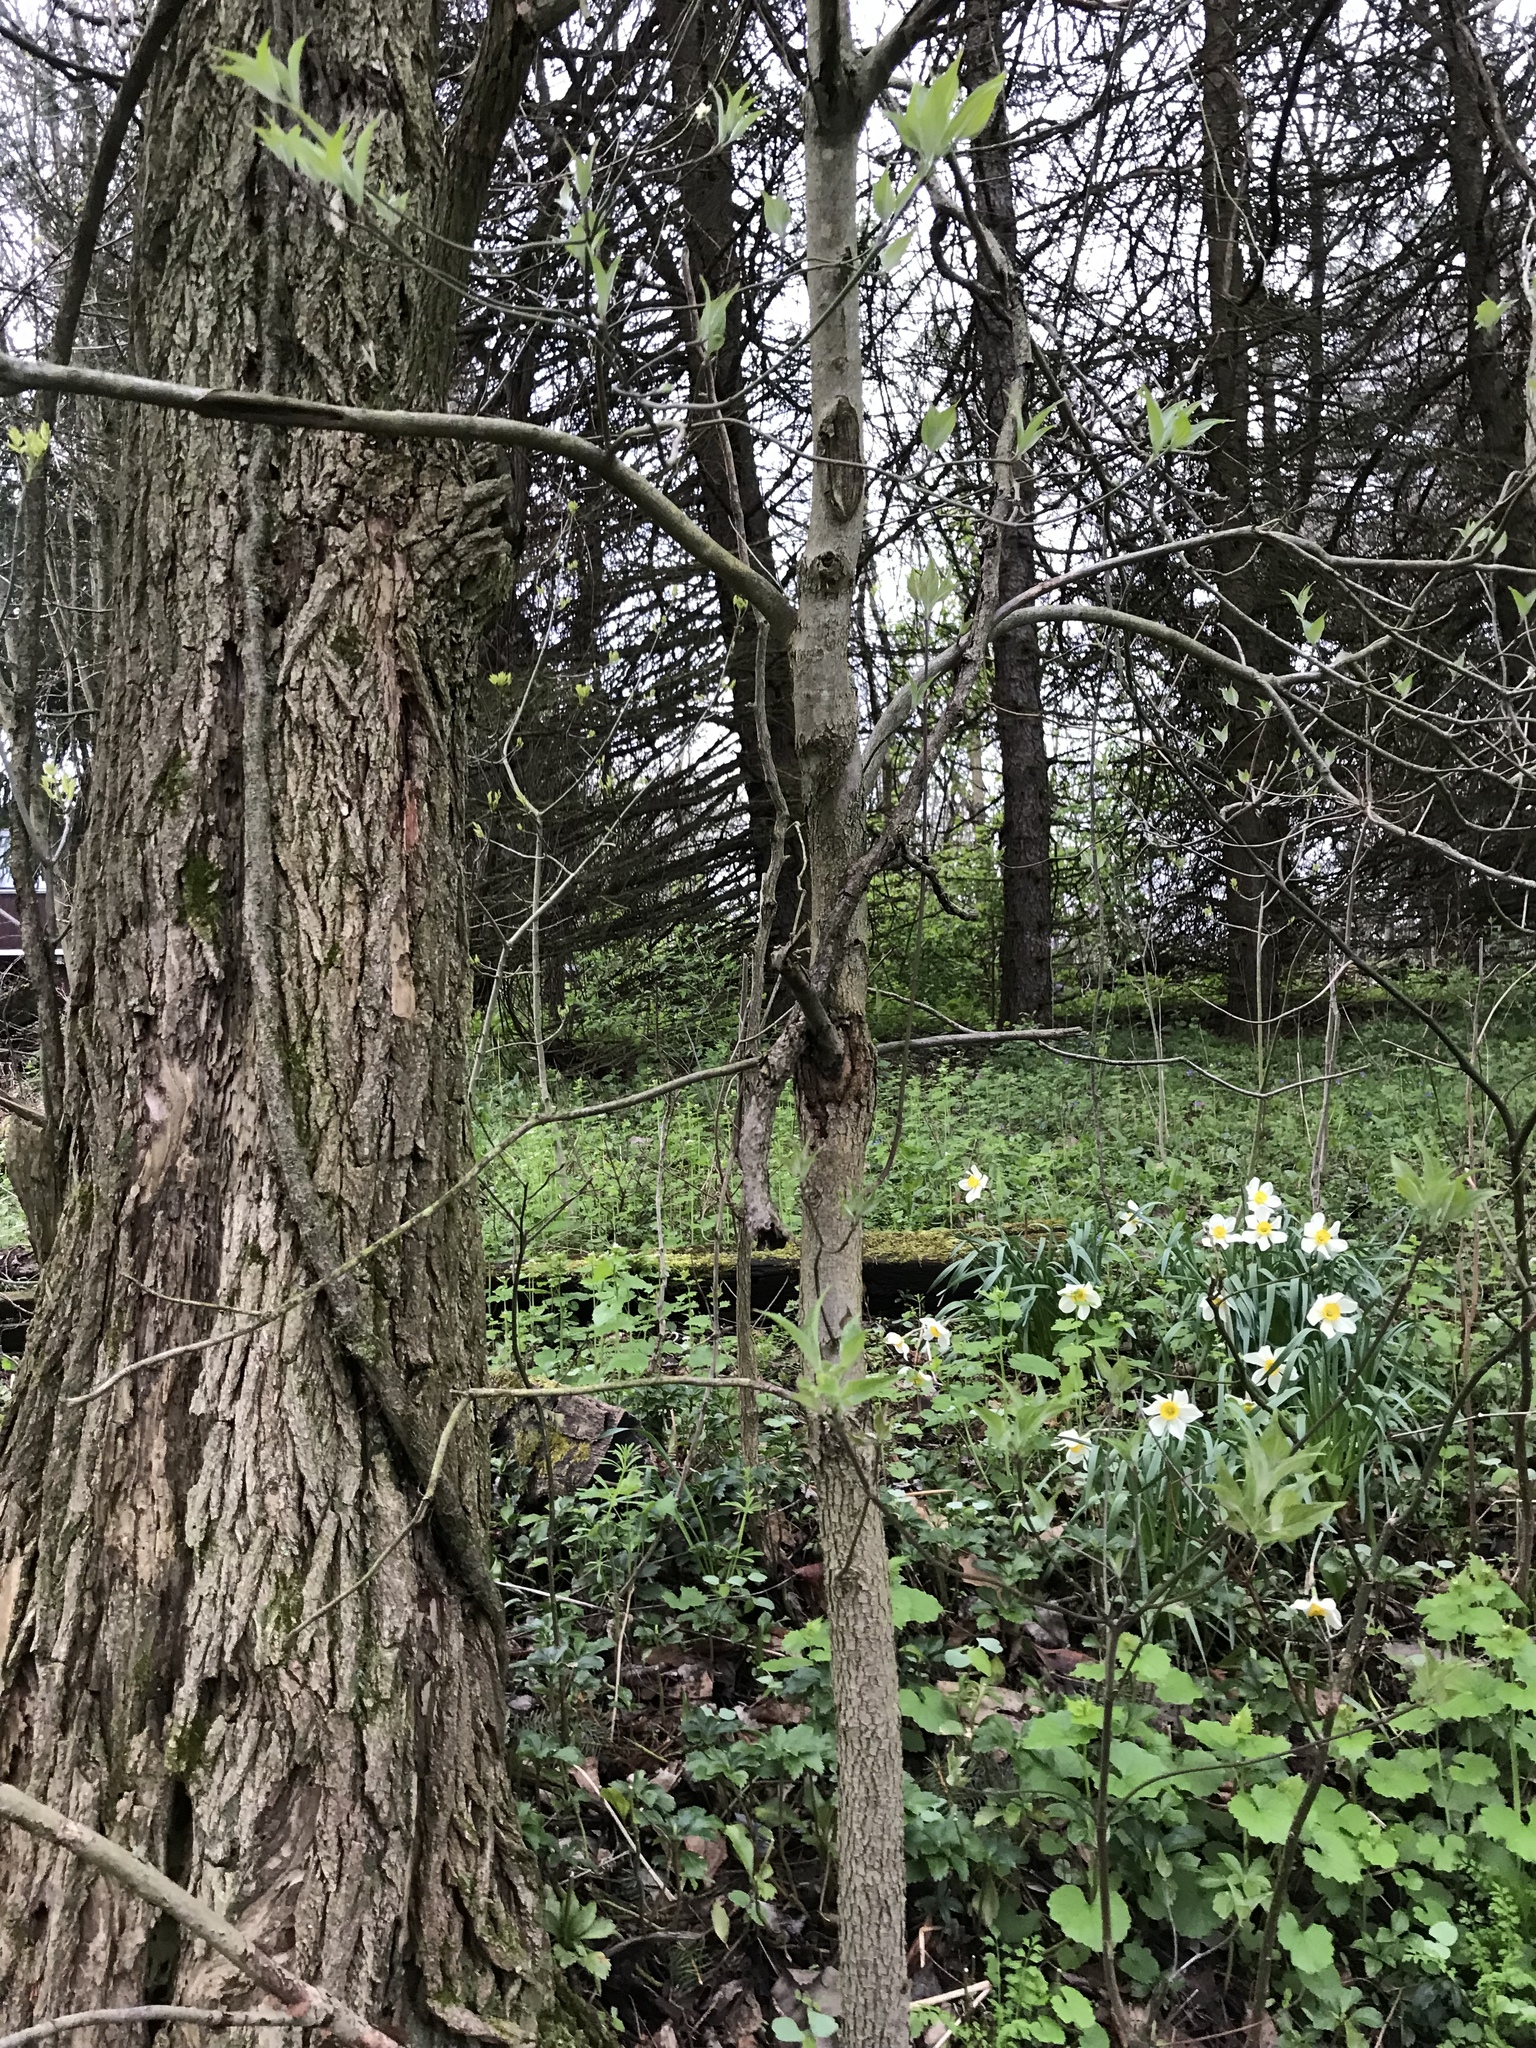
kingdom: Plantae
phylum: Tracheophyta
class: Magnoliopsida
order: Cornales
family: Cornaceae
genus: Cornus
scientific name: Cornus florida
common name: Flowering dogwood
